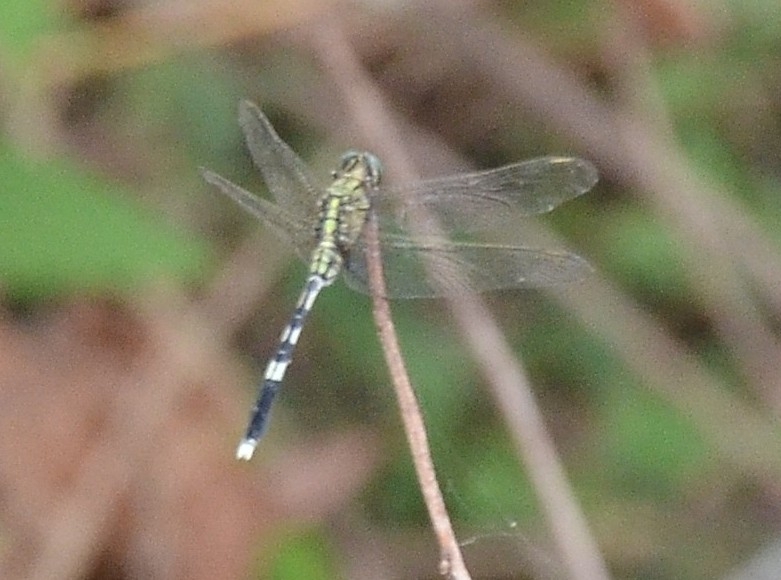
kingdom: Animalia
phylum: Arthropoda
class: Insecta
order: Odonata
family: Libellulidae
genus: Orthetrum
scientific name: Orthetrum sabina
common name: Slender skimmer
